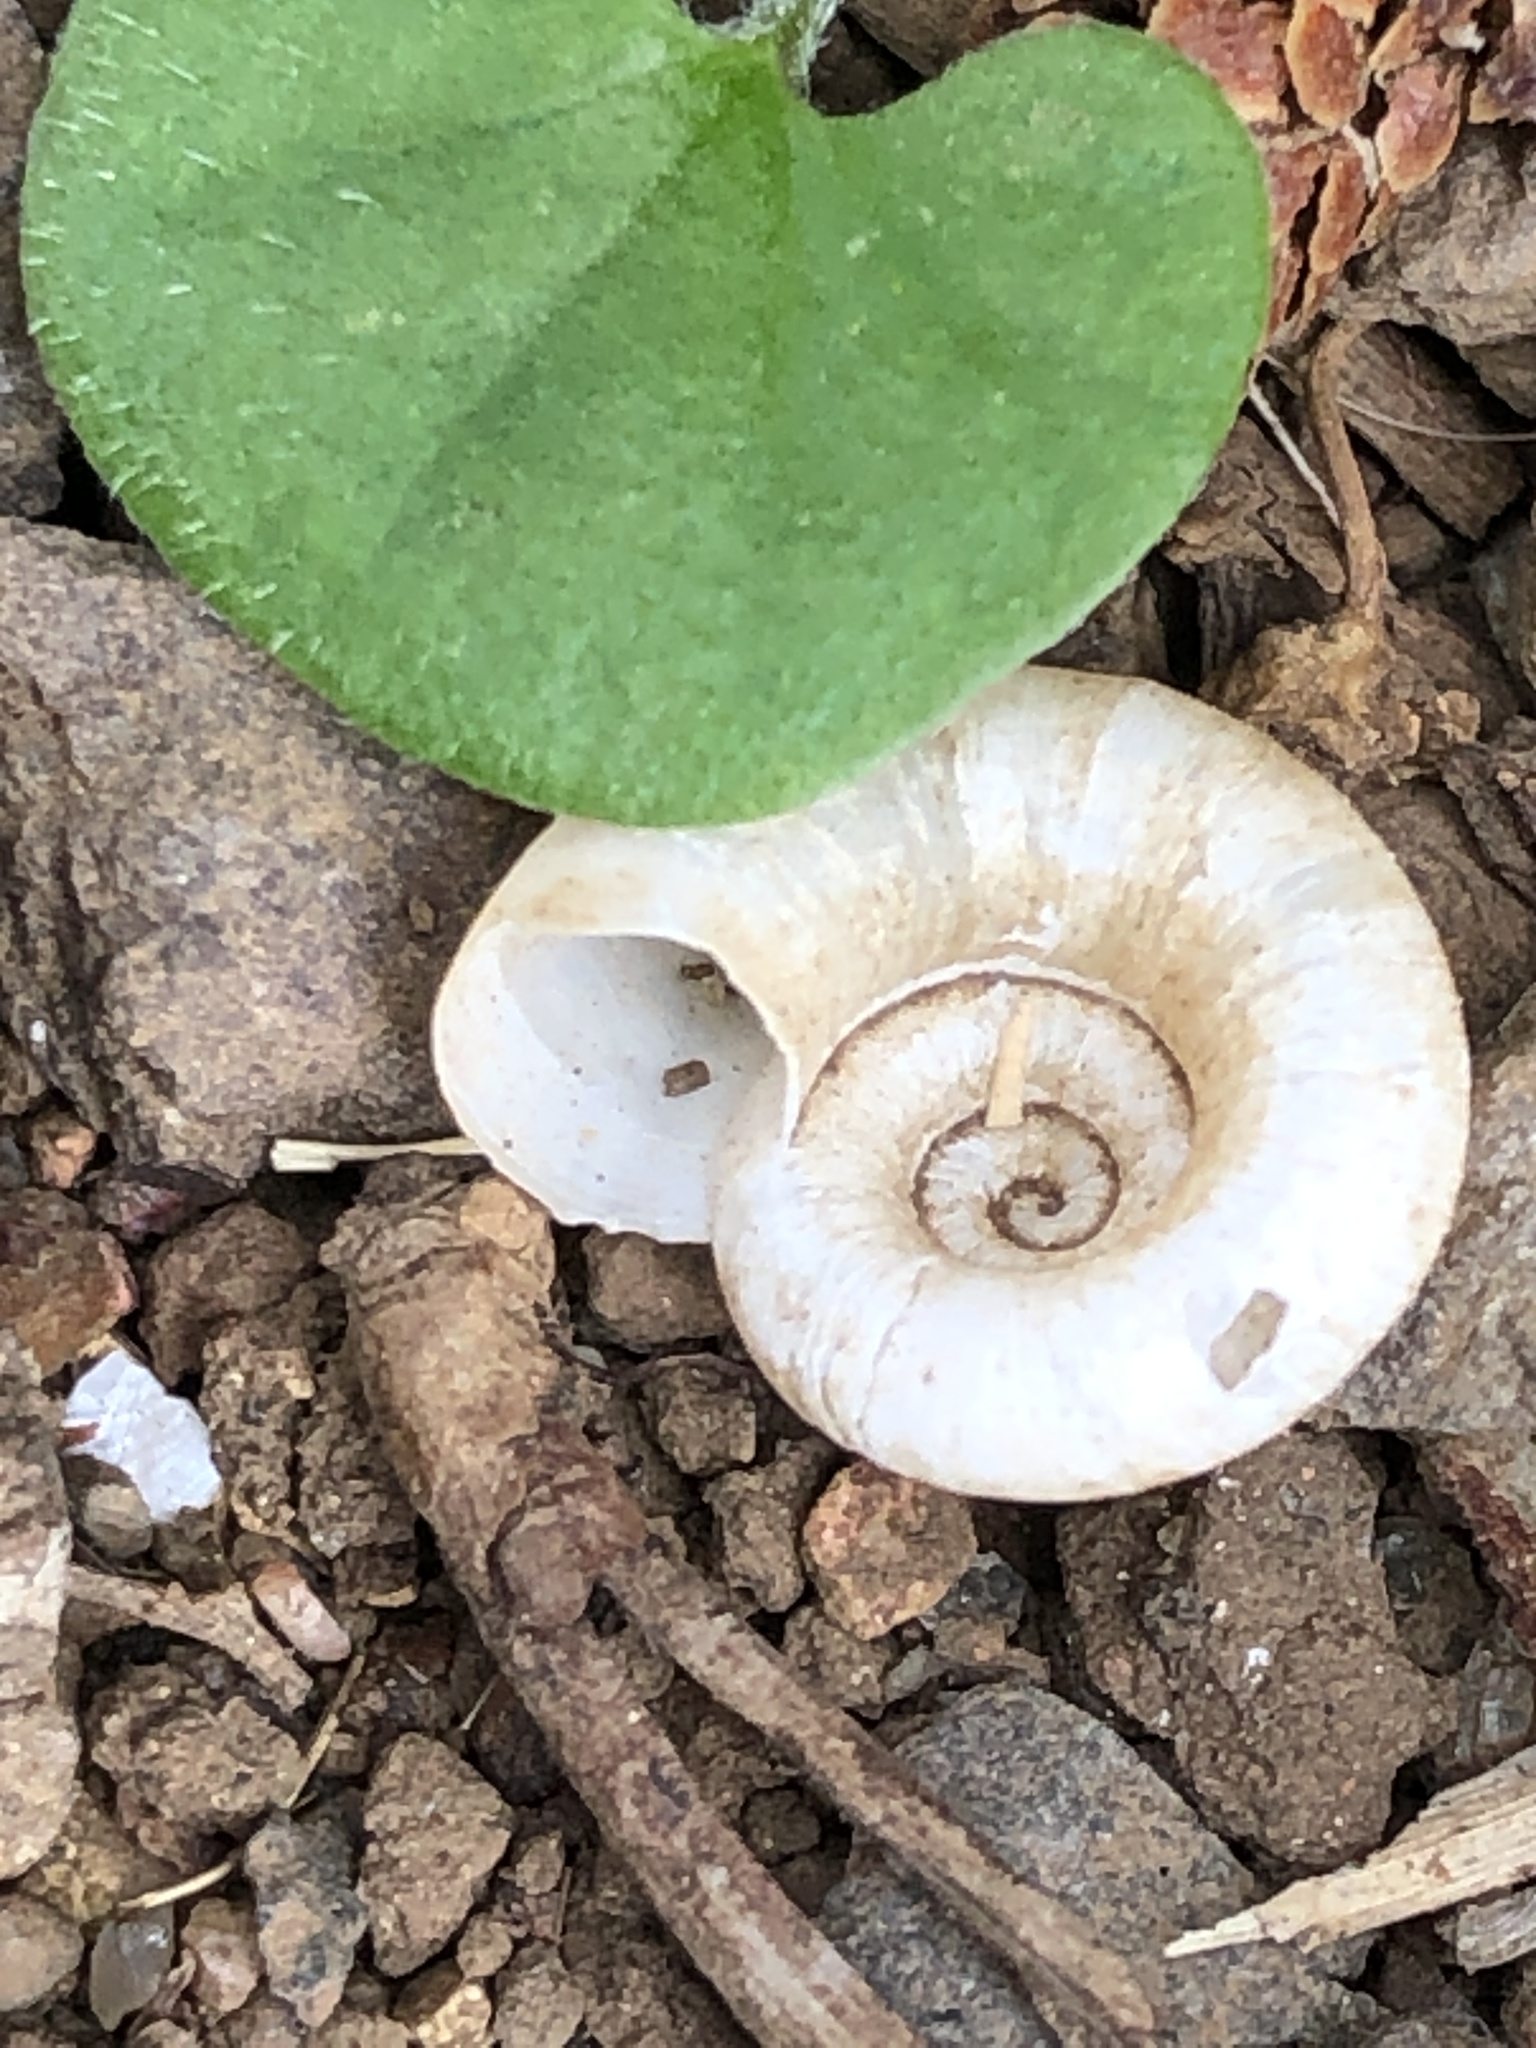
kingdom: Animalia
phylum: Mollusca
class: Gastropoda
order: Architaenioglossa
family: Cyclophoridae
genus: Spirostoma
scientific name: Spirostoma japonicum
